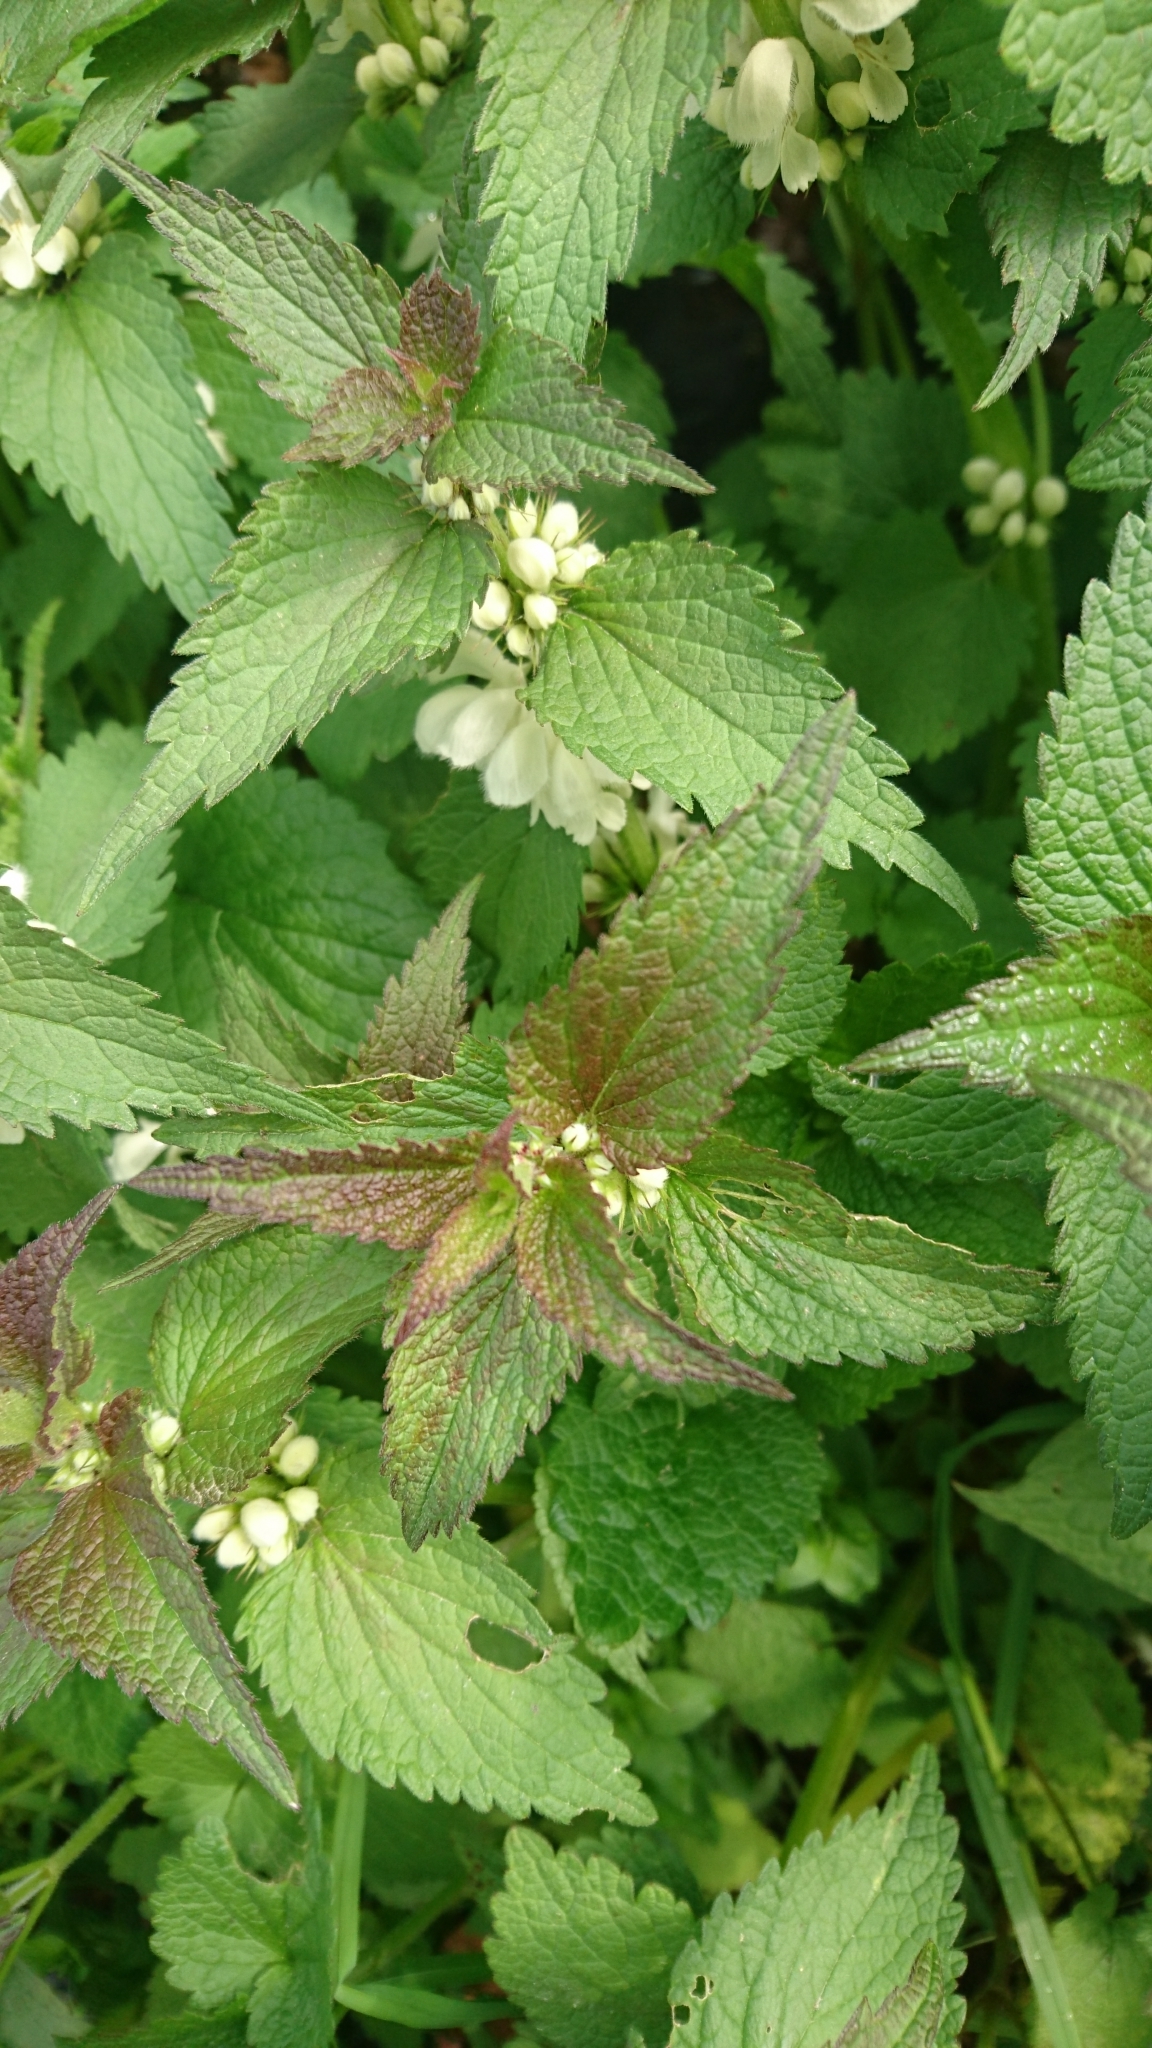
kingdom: Plantae
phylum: Tracheophyta
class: Magnoliopsida
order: Lamiales
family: Lamiaceae
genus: Lamium
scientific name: Lamium album
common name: White dead-nettle
